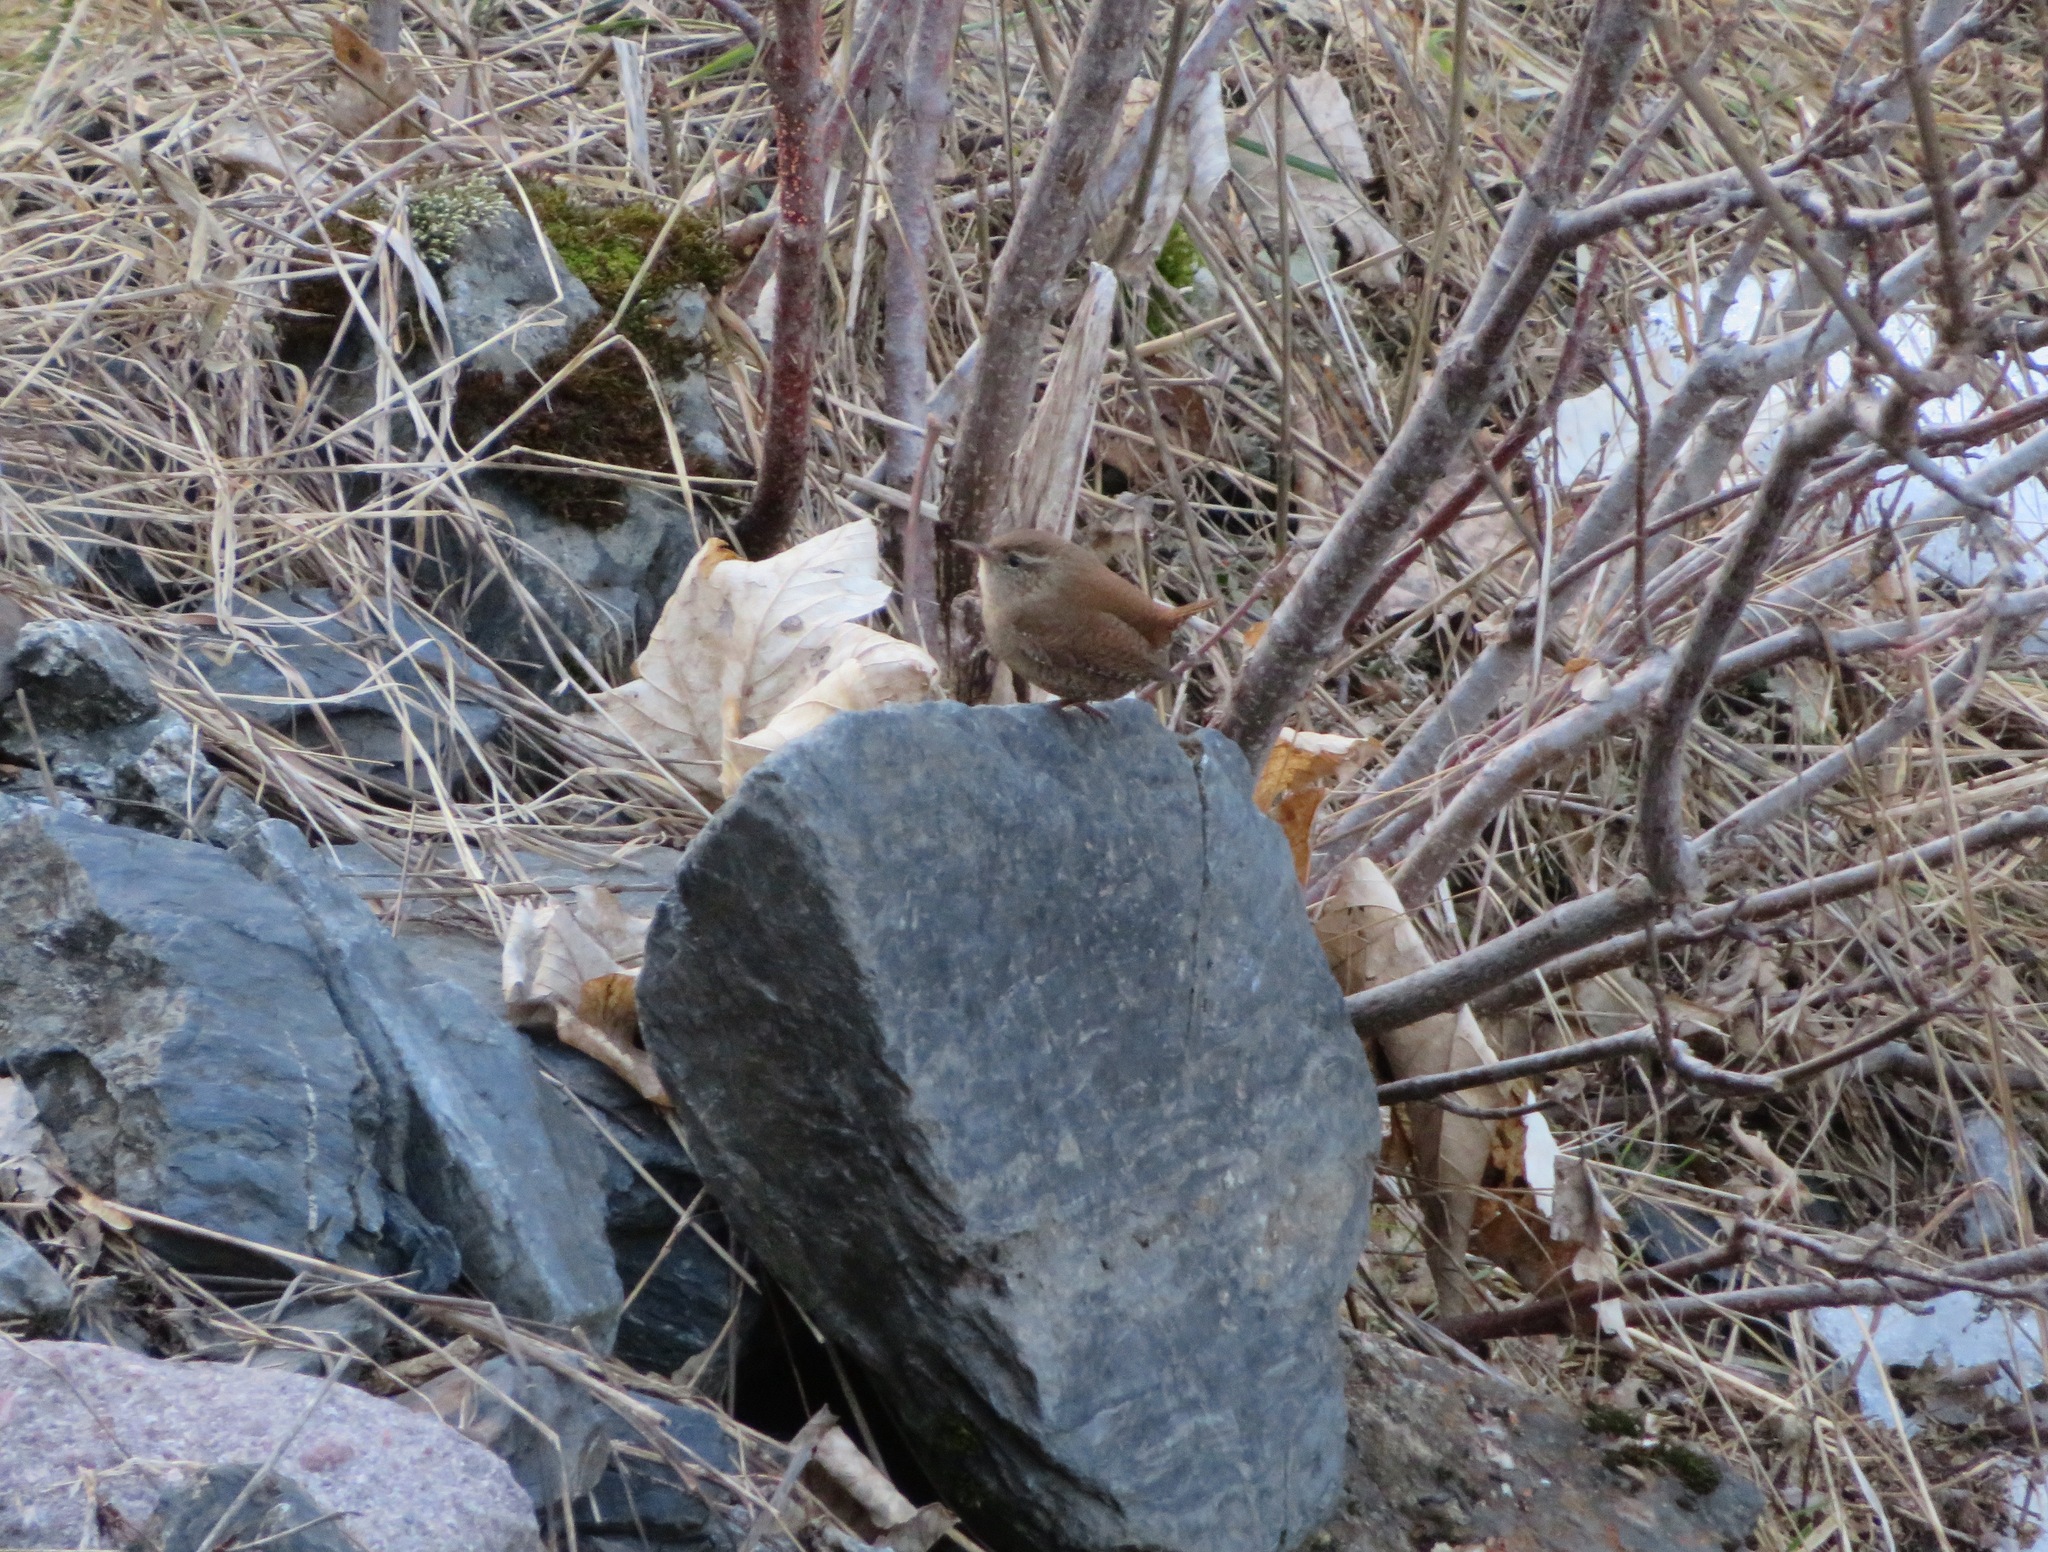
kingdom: Animalia
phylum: Chordata
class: Aves
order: Passeriformes
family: Troglodytidae
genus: Troglodytes
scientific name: Troglodytes troglodytes
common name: Eurasian wren
